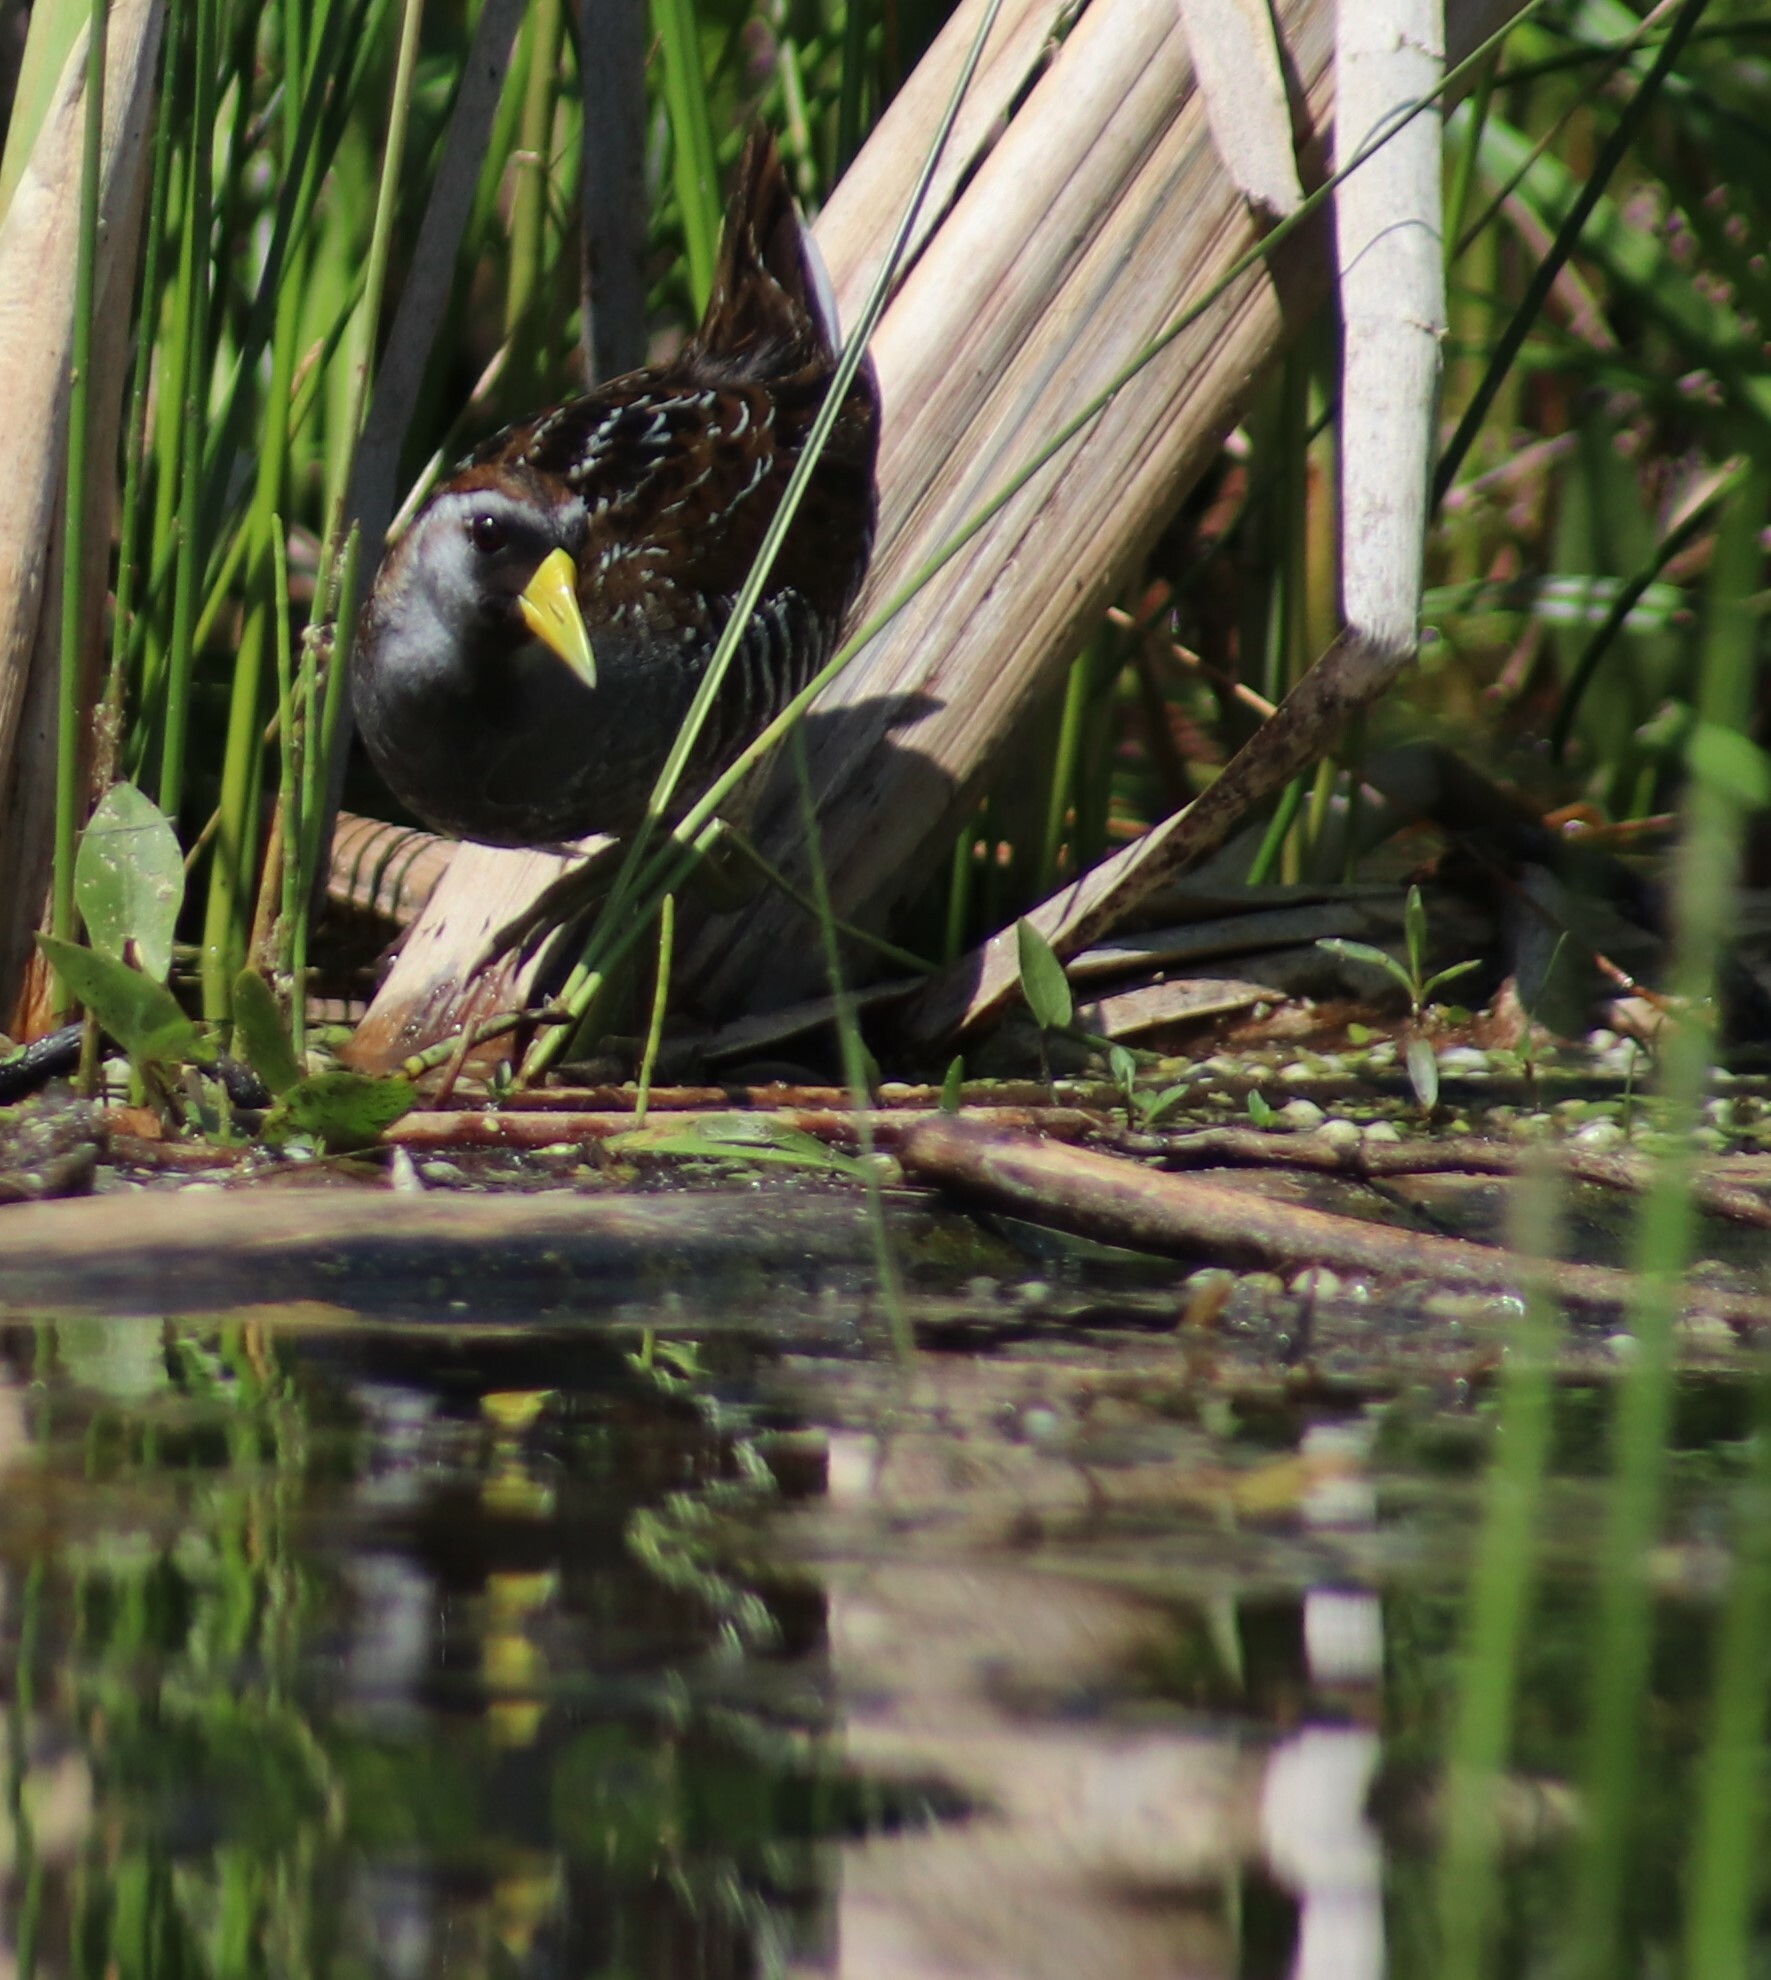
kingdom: Animalia
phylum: Chordata
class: Aves
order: Gruiformes
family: Rallidae
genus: Porzana
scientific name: Porzana carolina
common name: Sora
